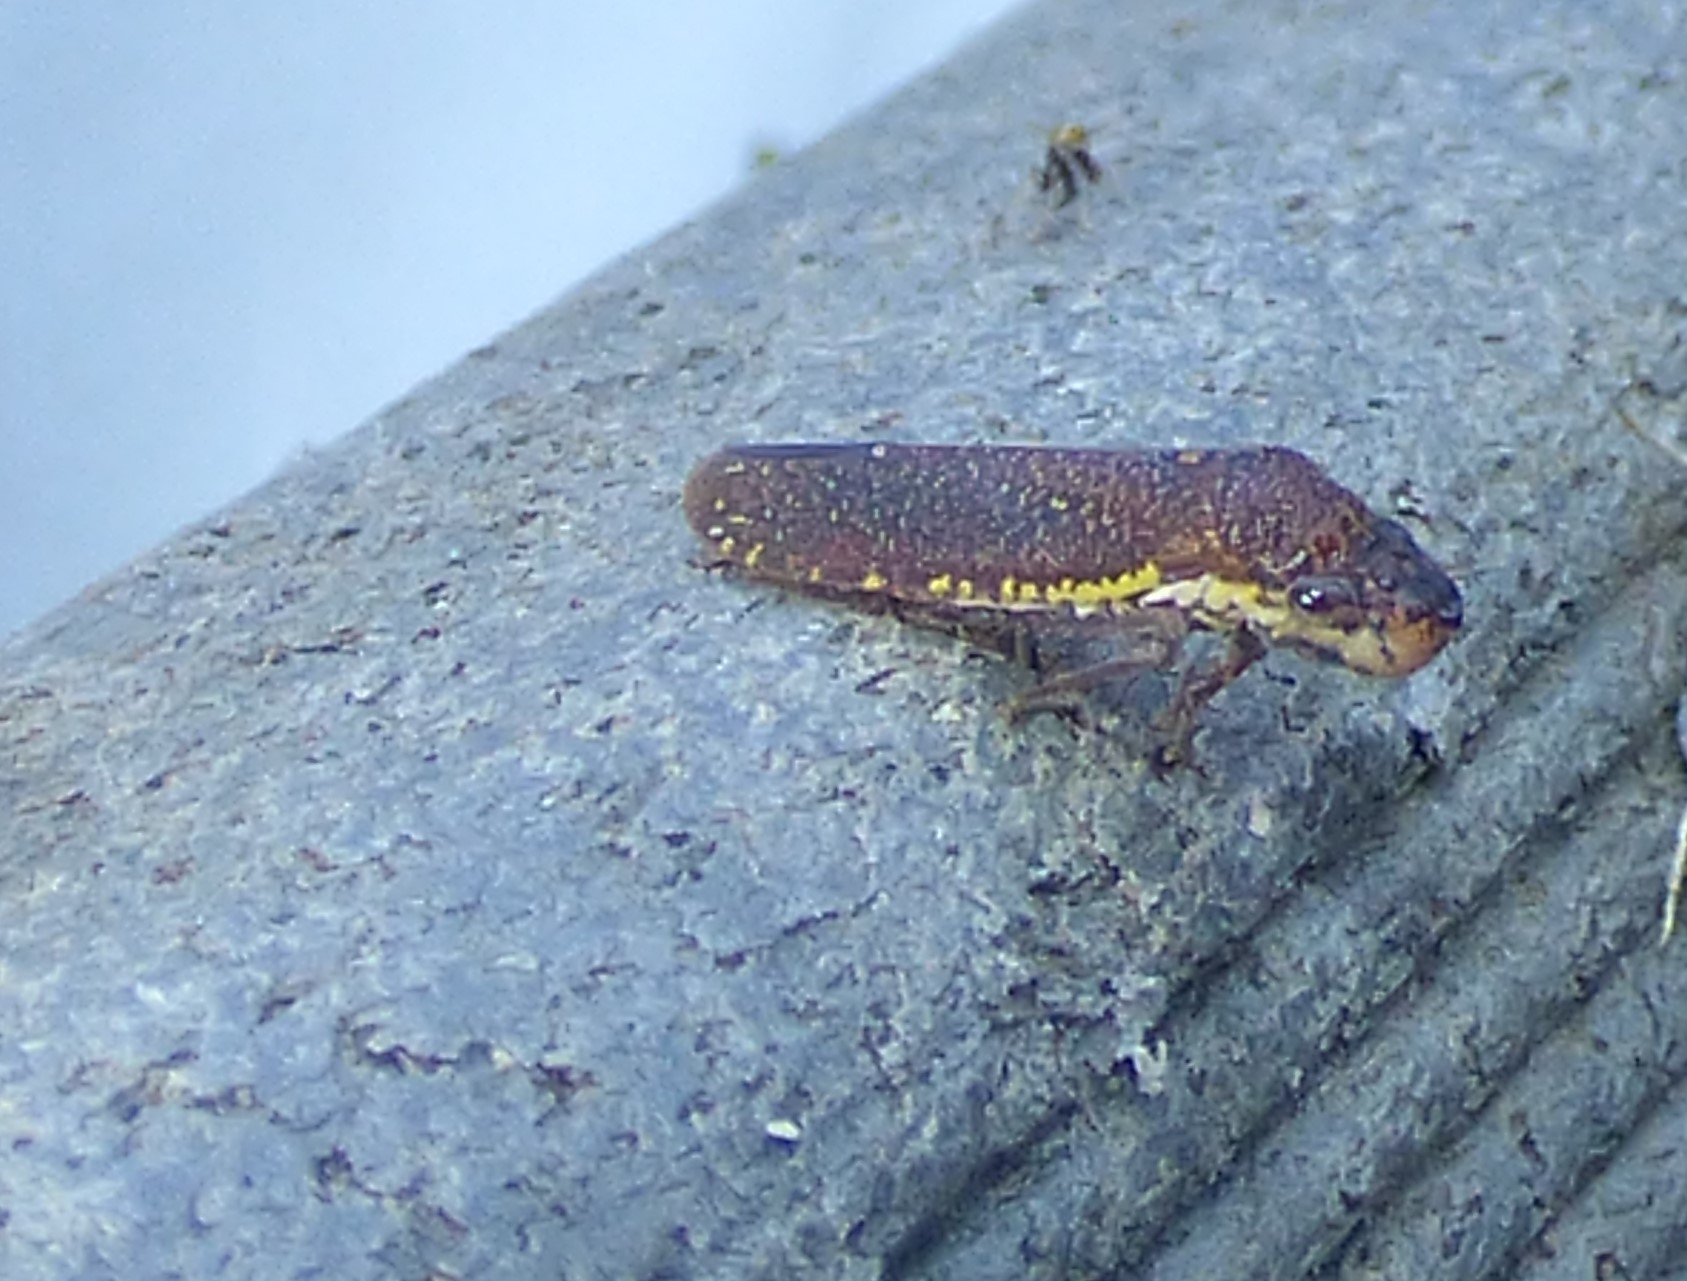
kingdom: Animalia
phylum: Arthropoda
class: Insecta
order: Hemiptera
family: Cicadellidae
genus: Paraulacizes
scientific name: Paraulacizes irrorata
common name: Speckled sharpshooter
